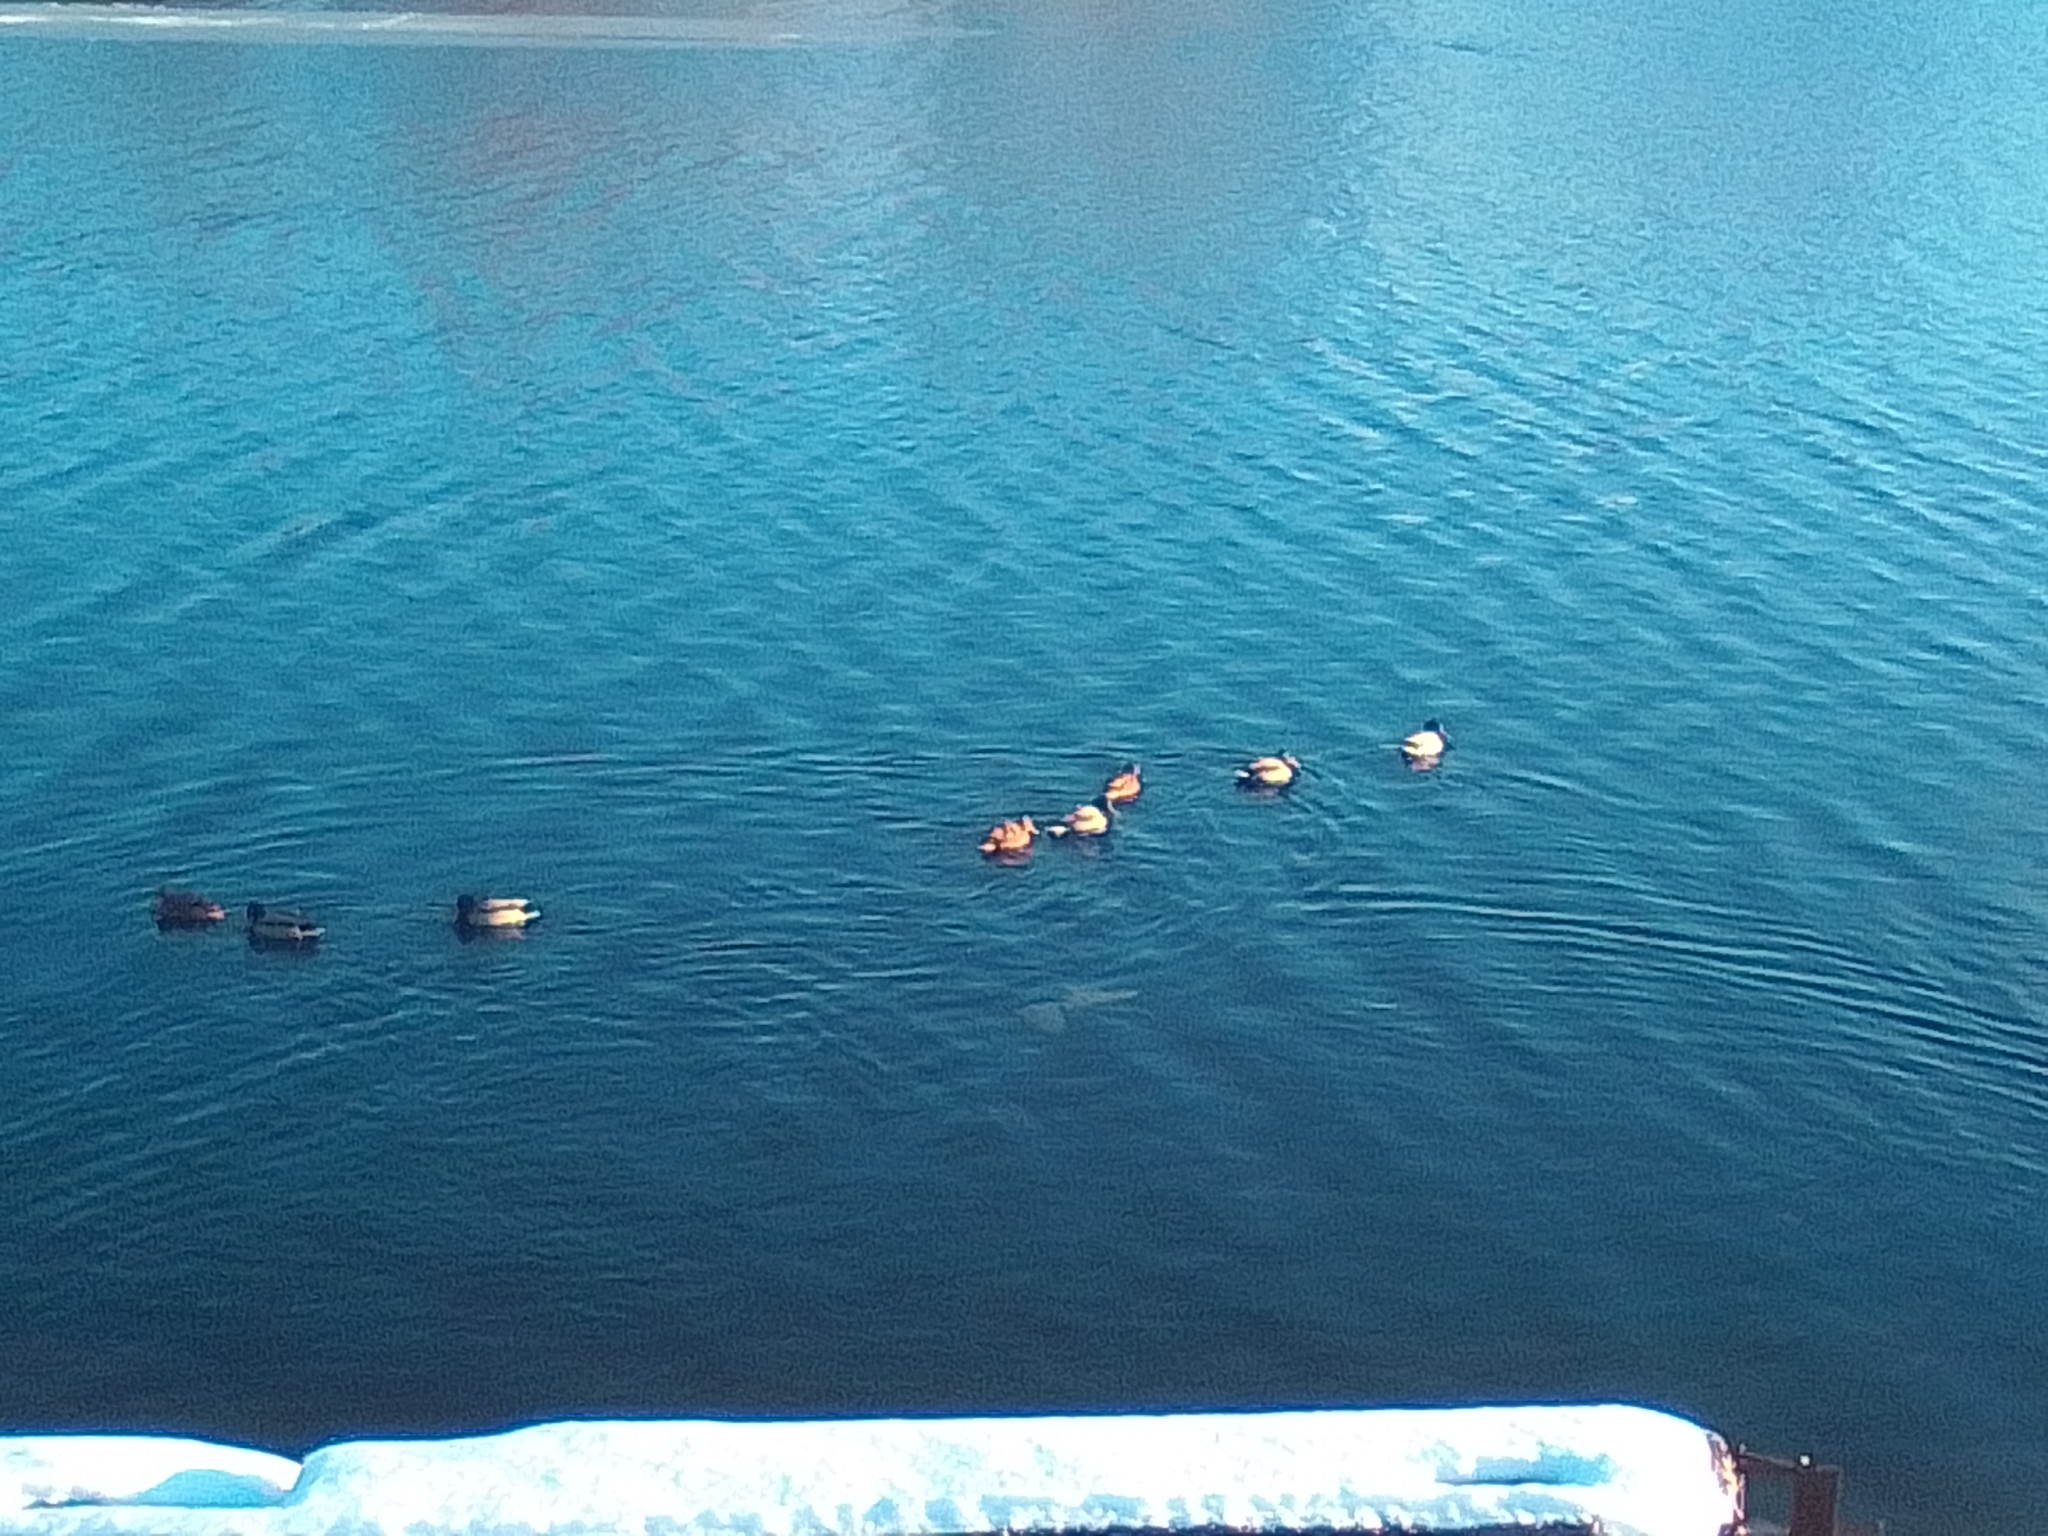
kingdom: Animalia
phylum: Chordata
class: Aves
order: Anseriformes
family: Anatidae
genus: Anas
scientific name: Anas platyrhynchos
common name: Mallard
